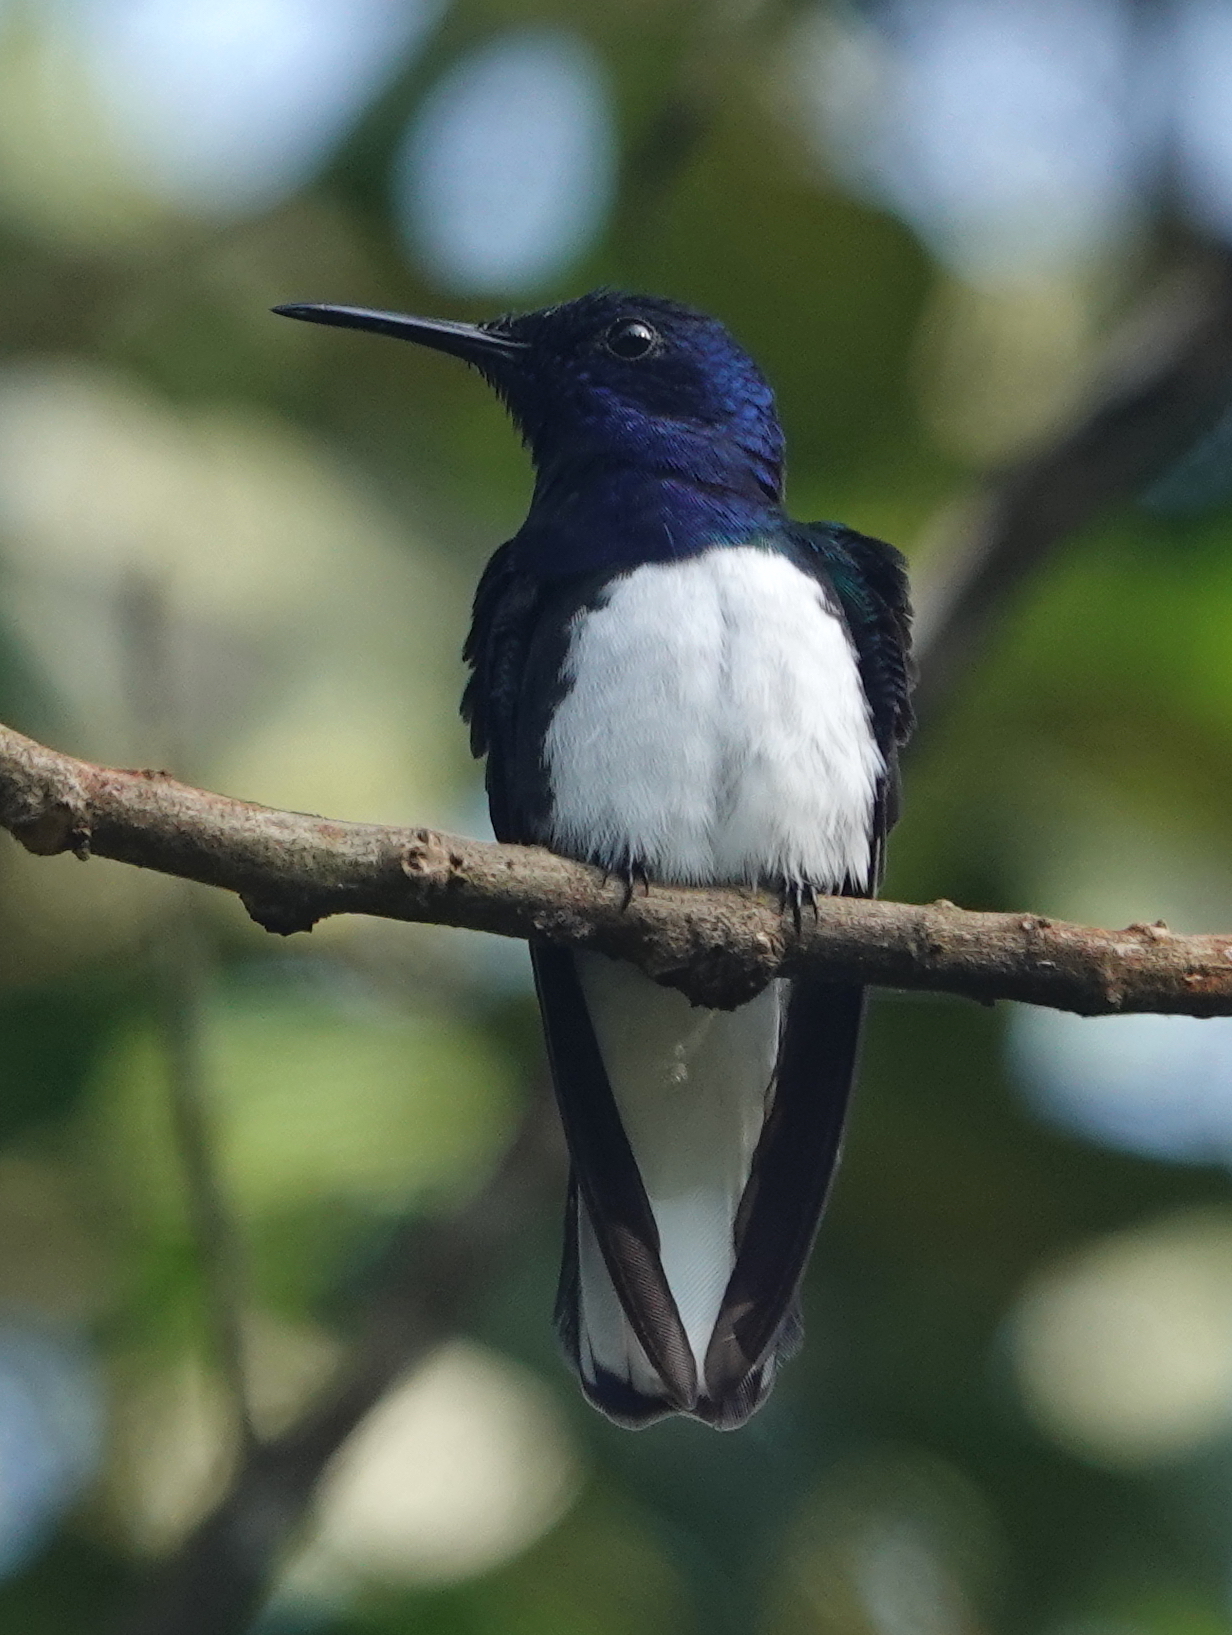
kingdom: Animalia
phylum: Chordata
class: Aves
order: Apodiformes
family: Trochilidae
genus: Florisuga
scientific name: Florisuga mellivora
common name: White-necked jacobin
